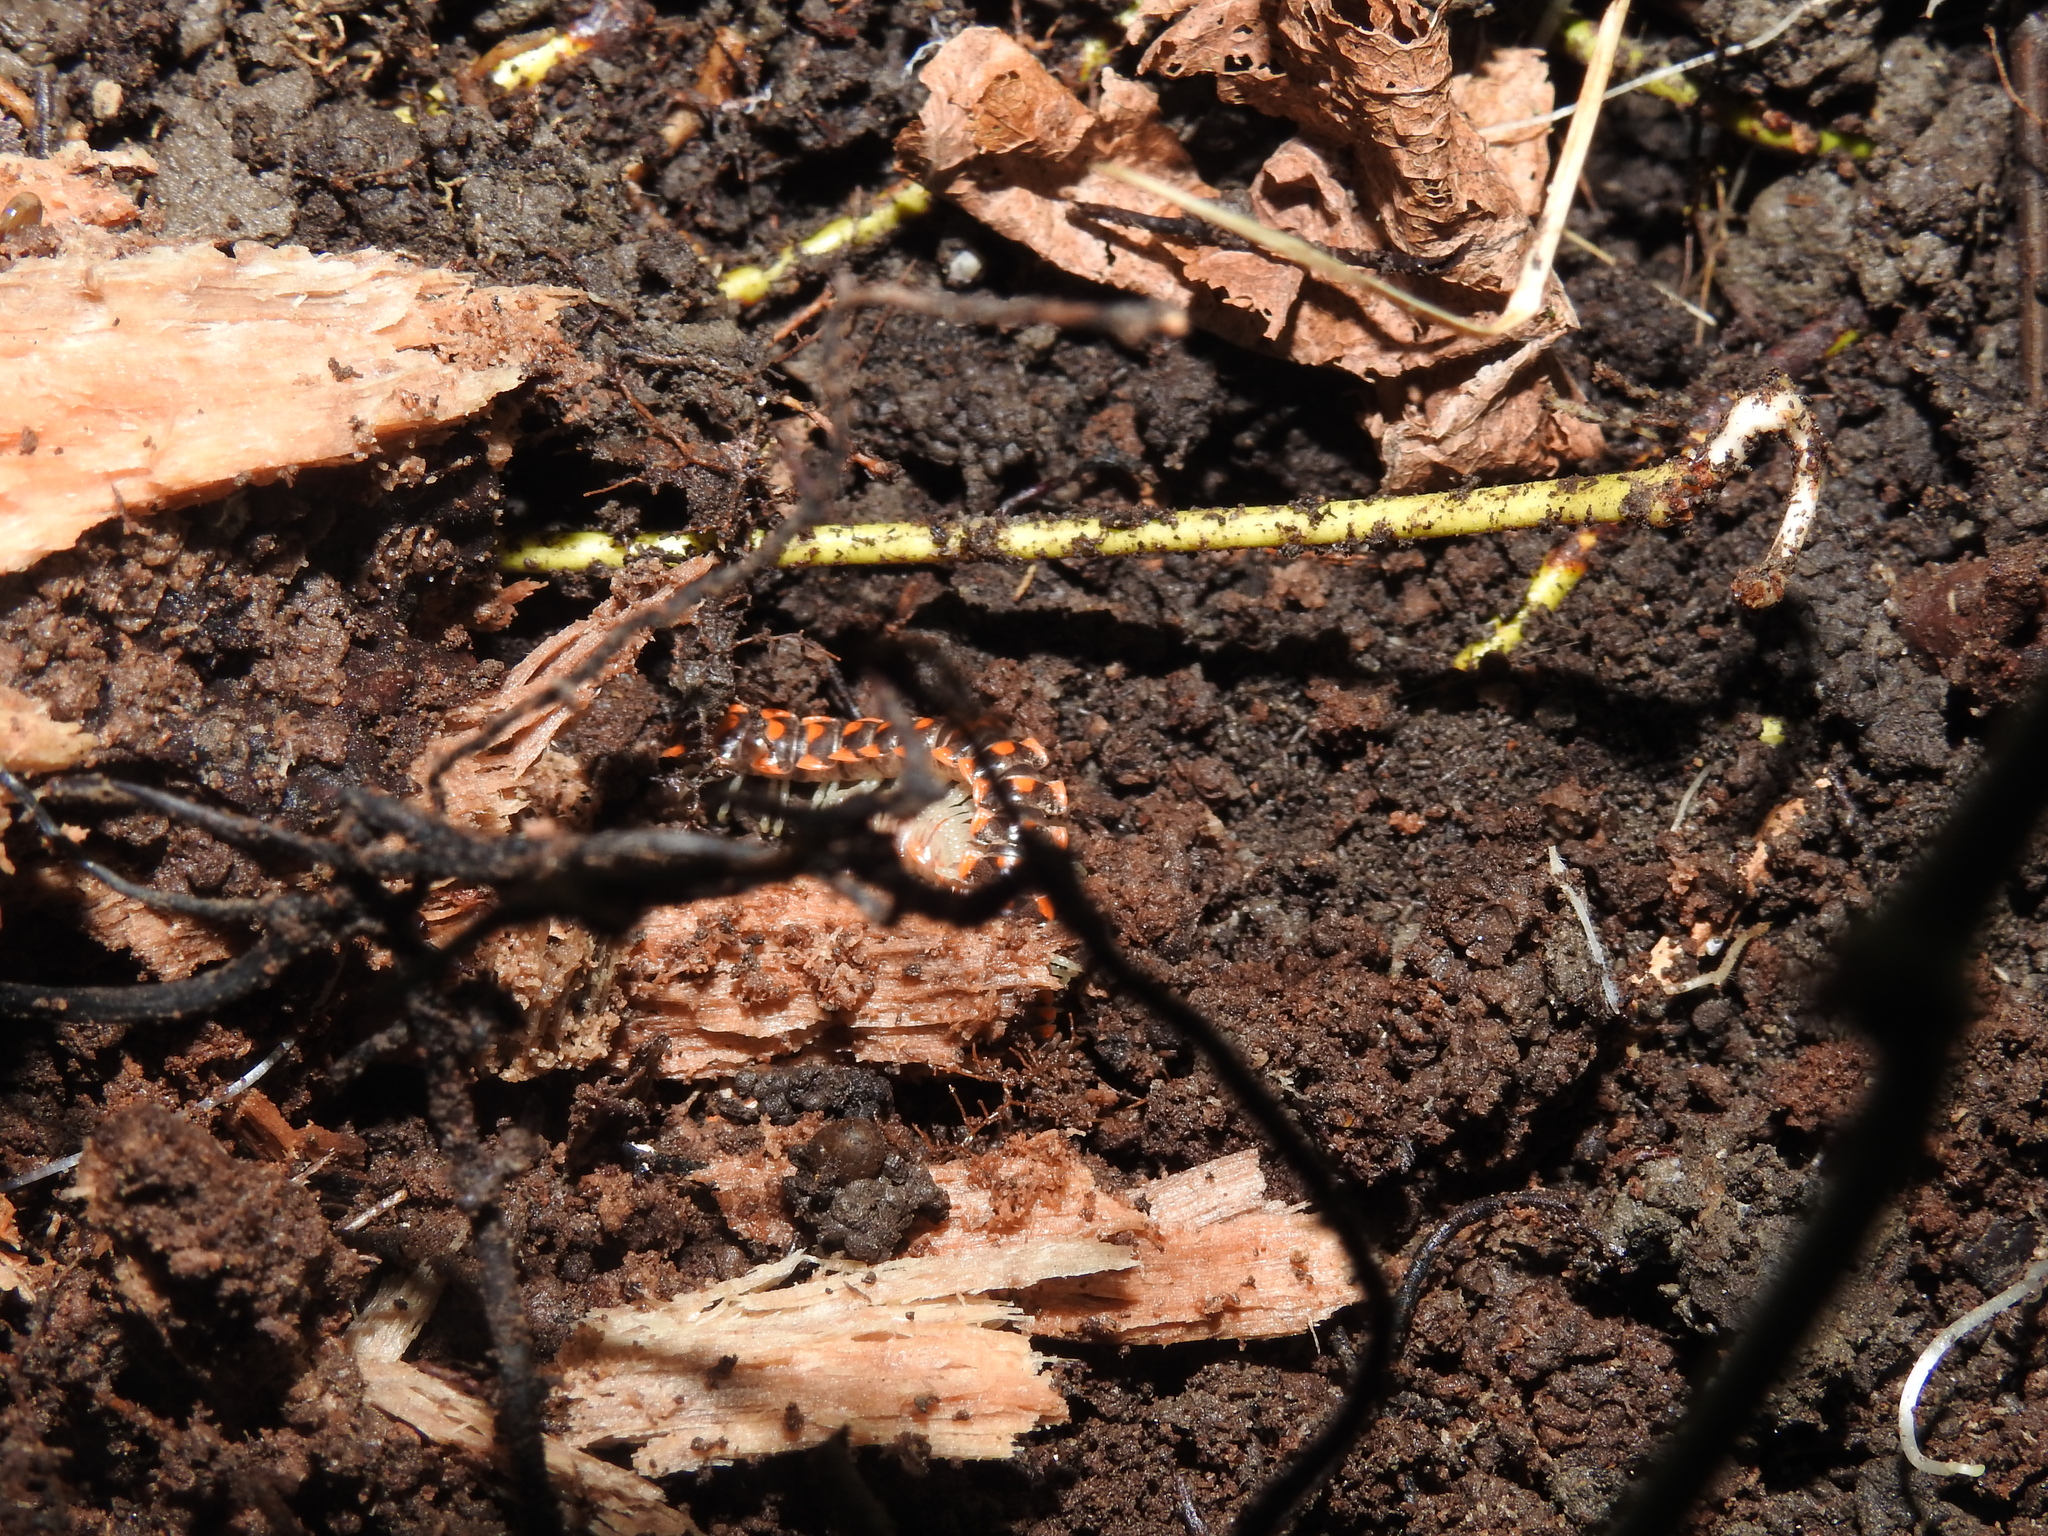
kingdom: Animalia
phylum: Arthropoda
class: Diplopoda
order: Polydesmida
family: Xystodesmidae
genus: Euryurus
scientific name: Euryurus leachii
